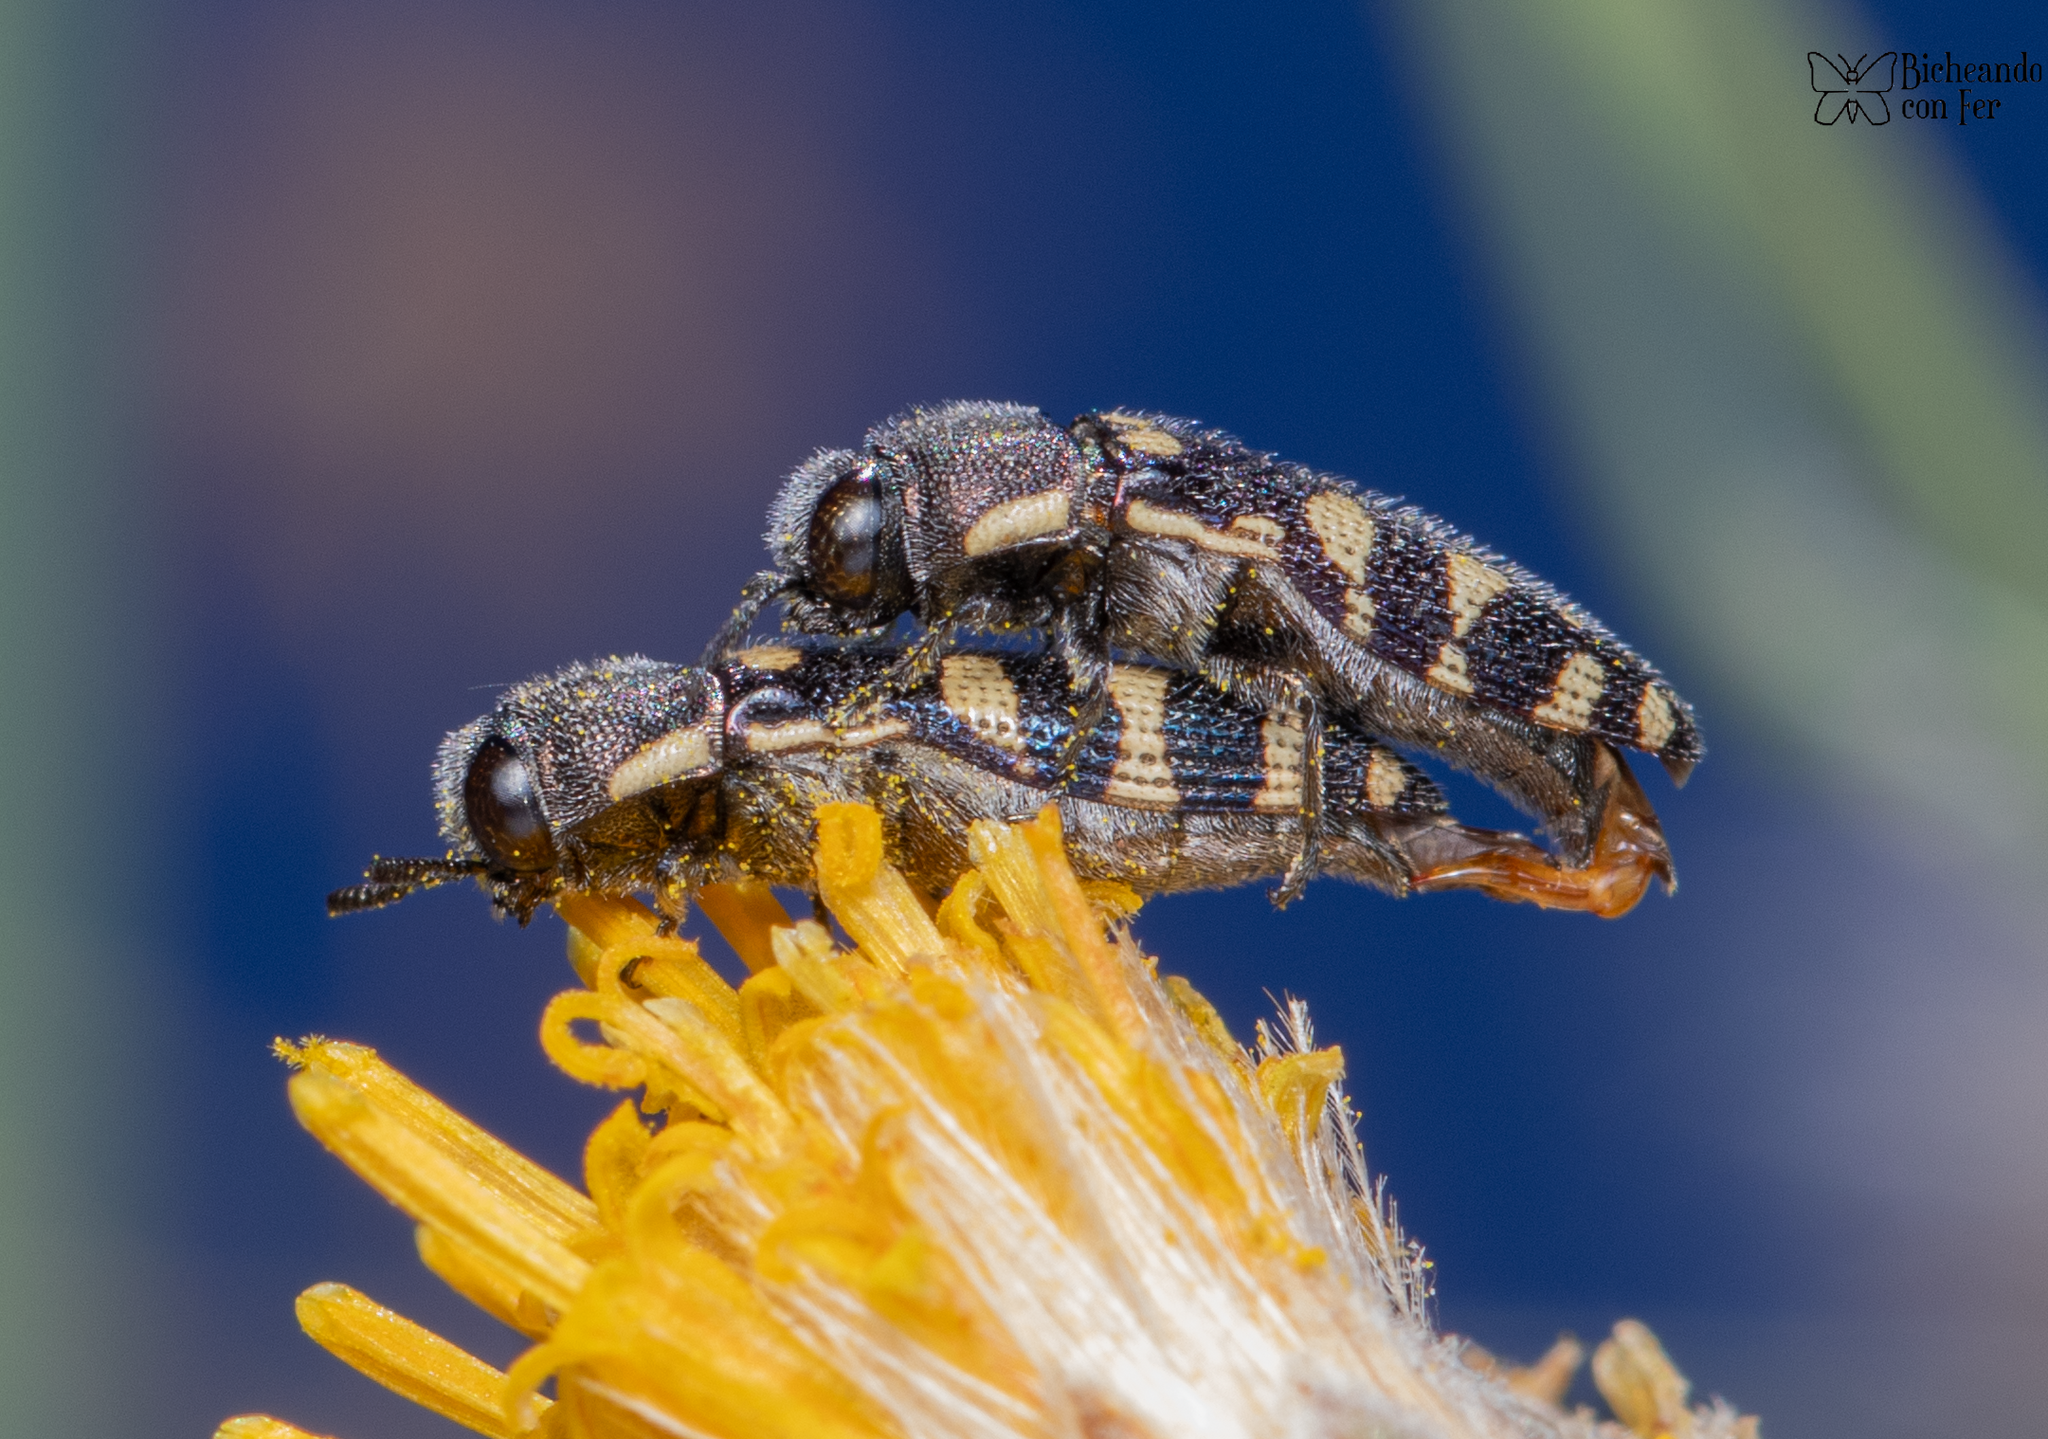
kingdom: Animalia
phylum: Arthropoda
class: Insecta
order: Coleoptera
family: Buprestidae
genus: Acmaeodera
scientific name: Acmaeodera alicia
